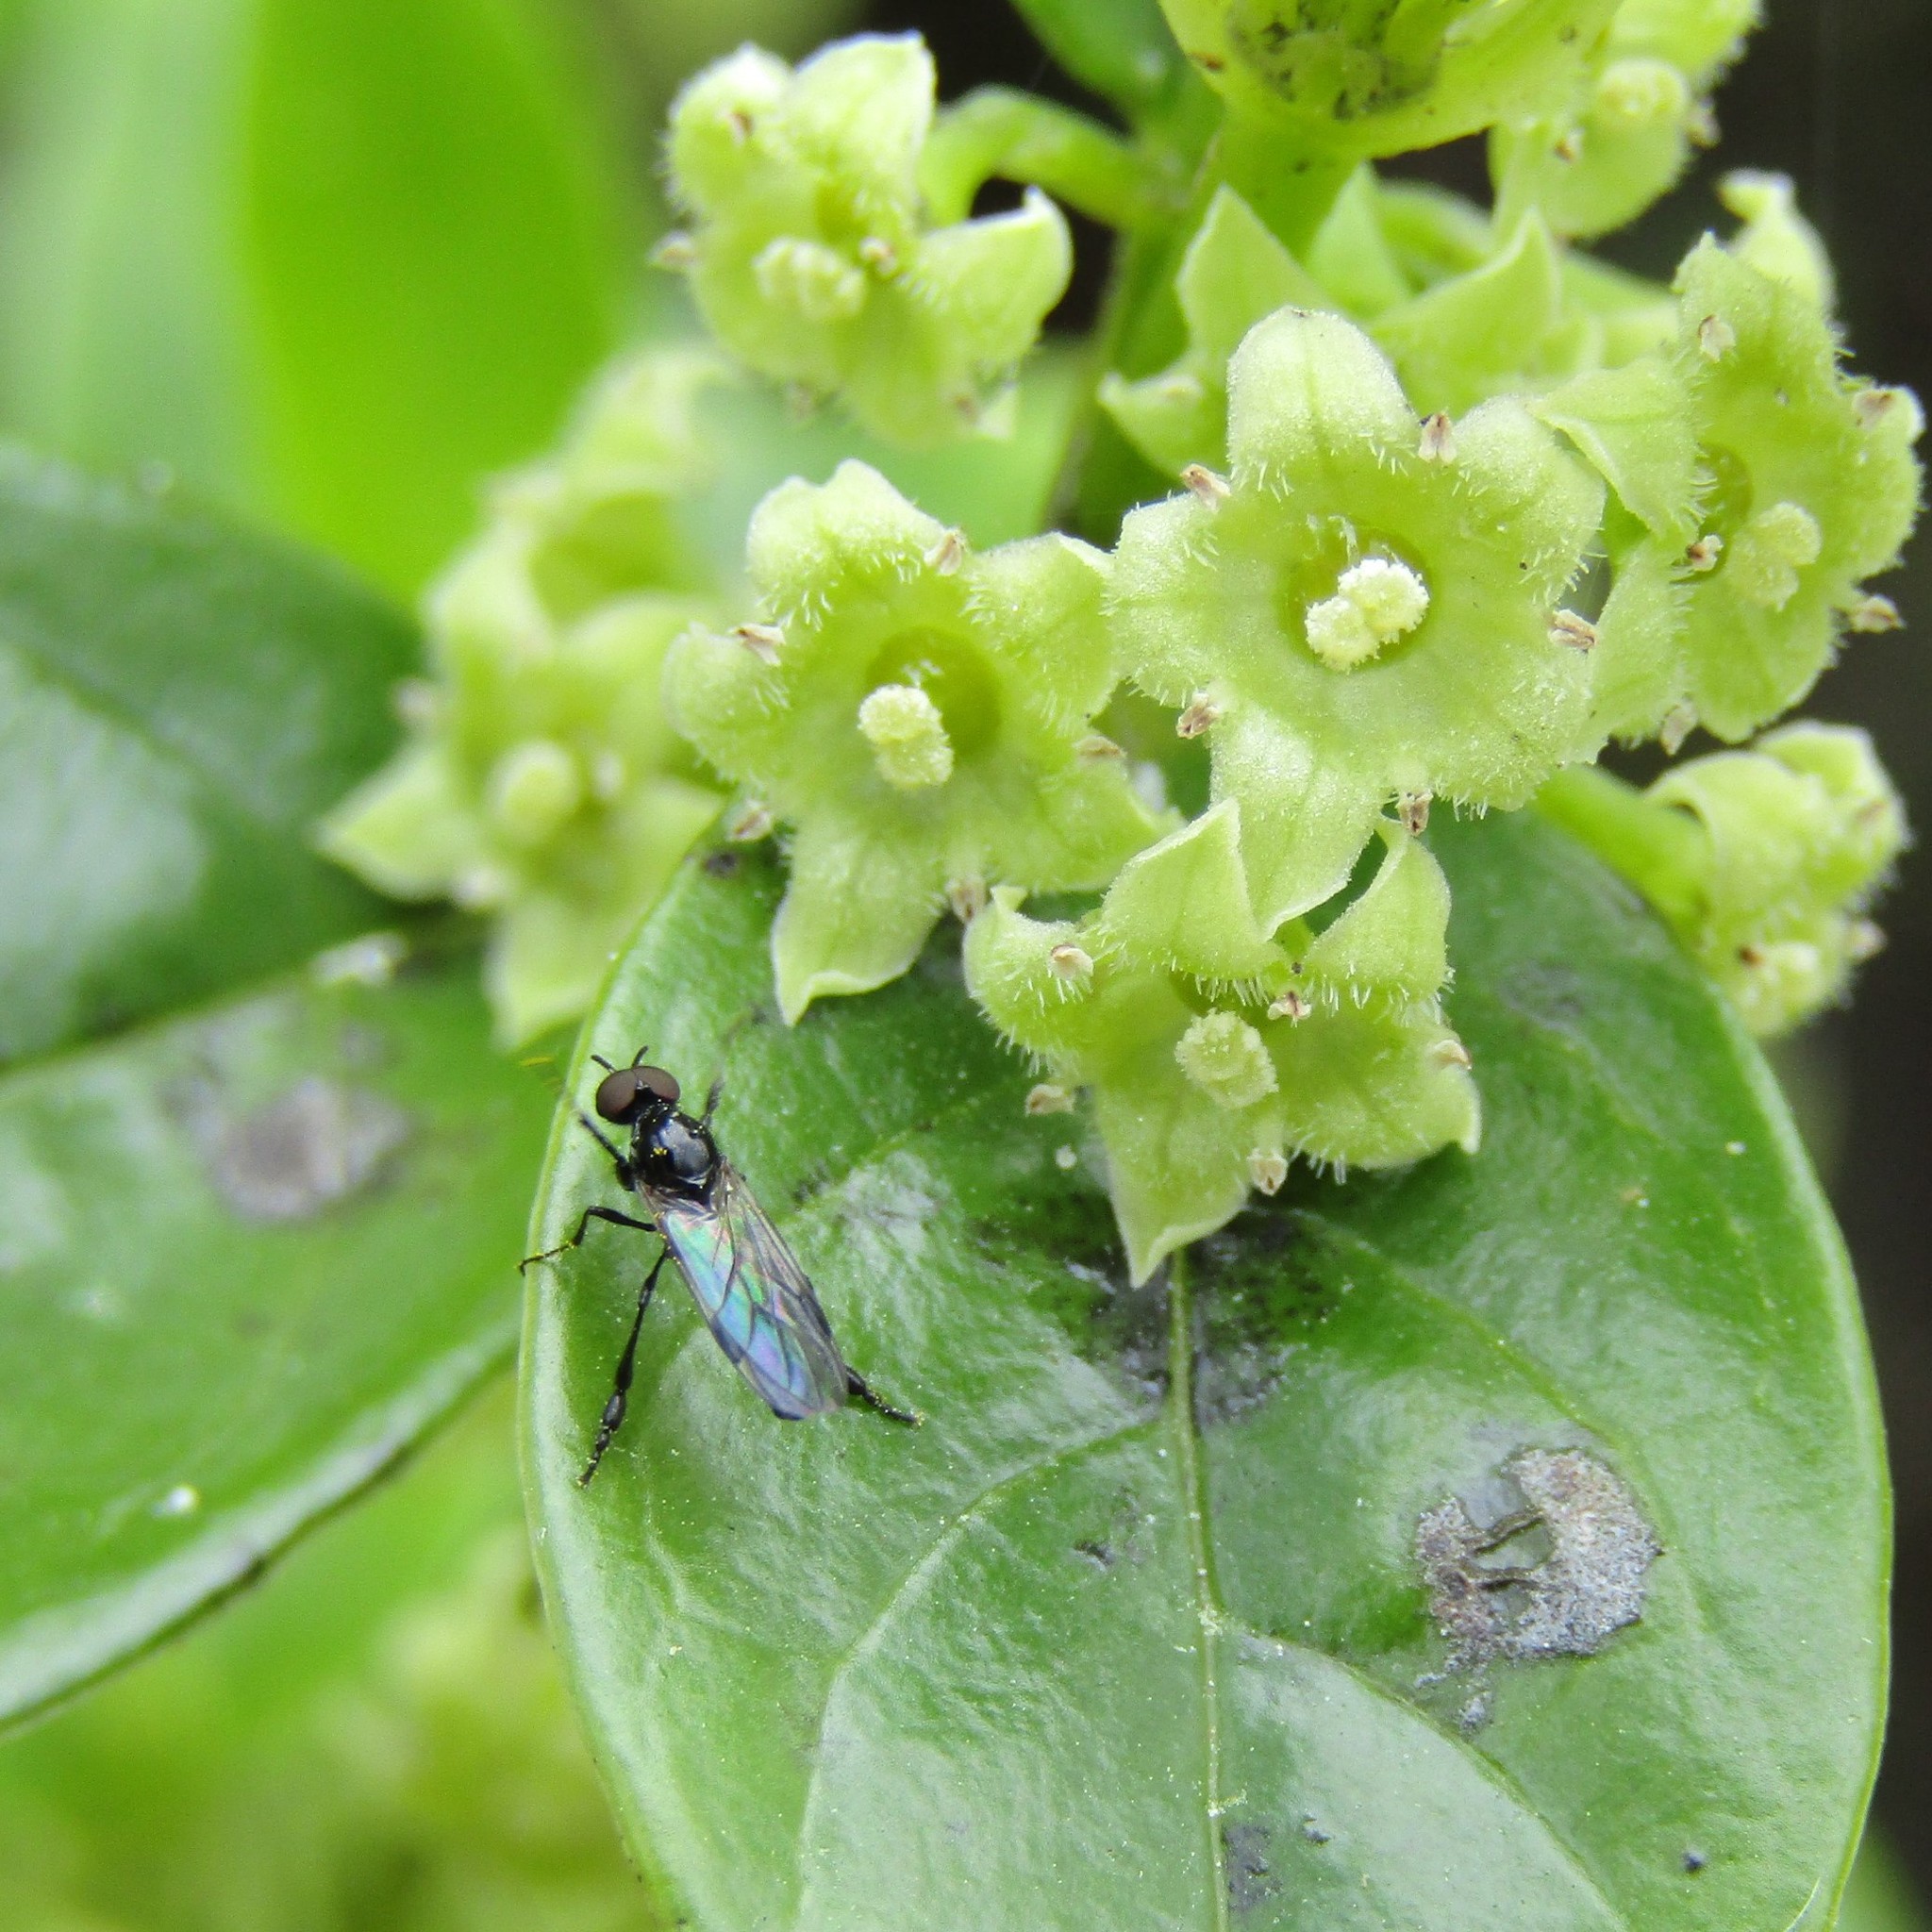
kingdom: Plantae
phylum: Tracheophyta
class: Magnoliopsida
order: Gentianales
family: Loganiaceae
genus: Geniostoma
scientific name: Geniostoma ligustrifolium
